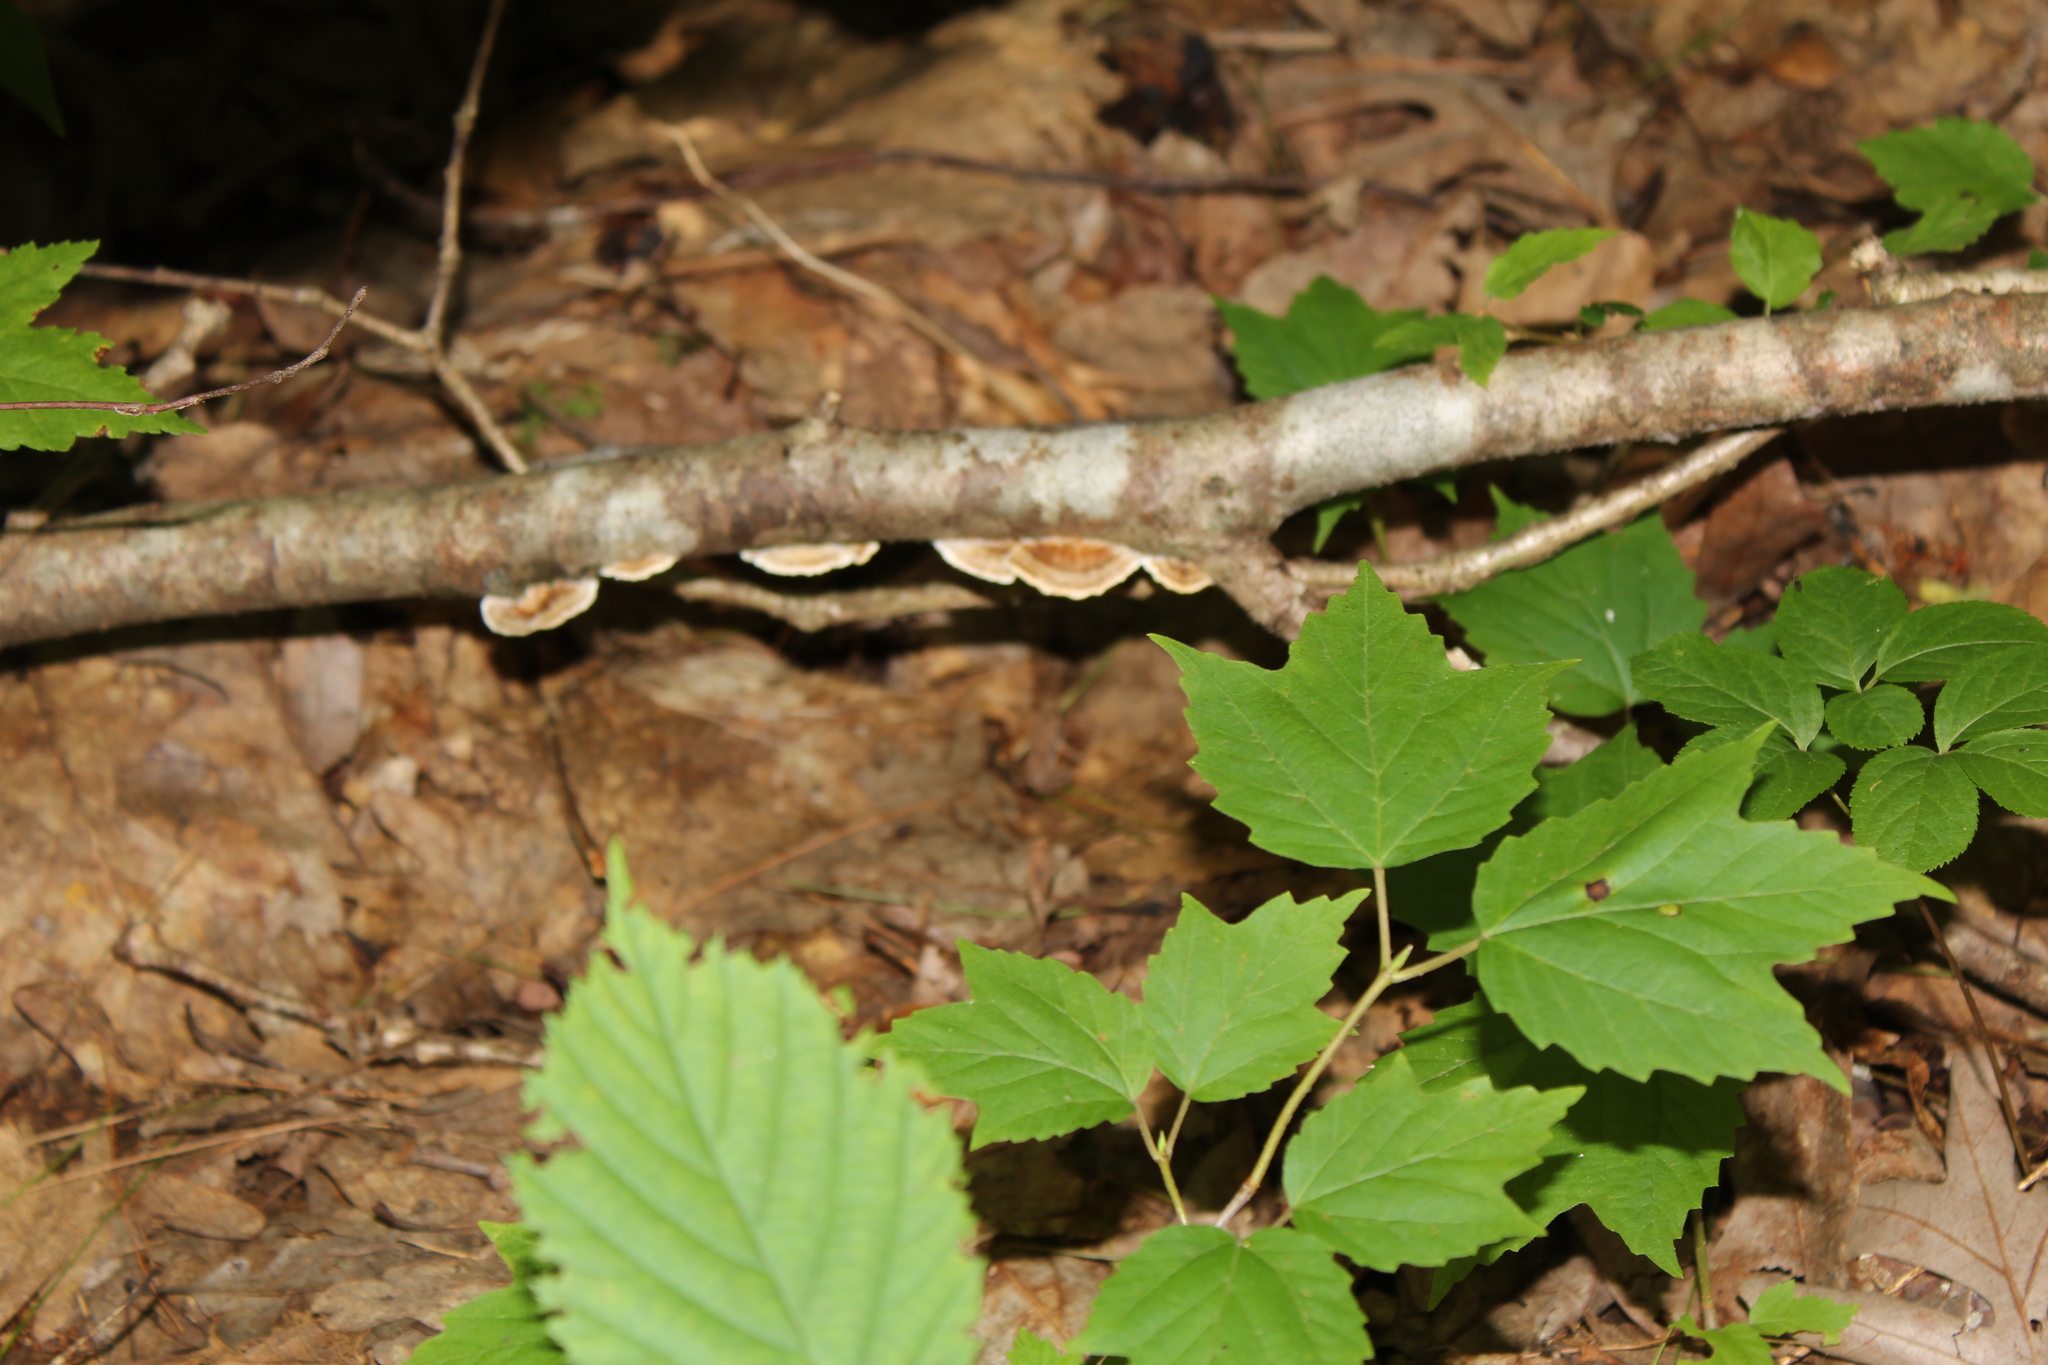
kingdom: Plantae
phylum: Tracheophyta
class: Magnoliopsida
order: Dipsacales
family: Viburnaceae
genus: Viburnum
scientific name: Viburnum acerifolium
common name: Dockmackie
